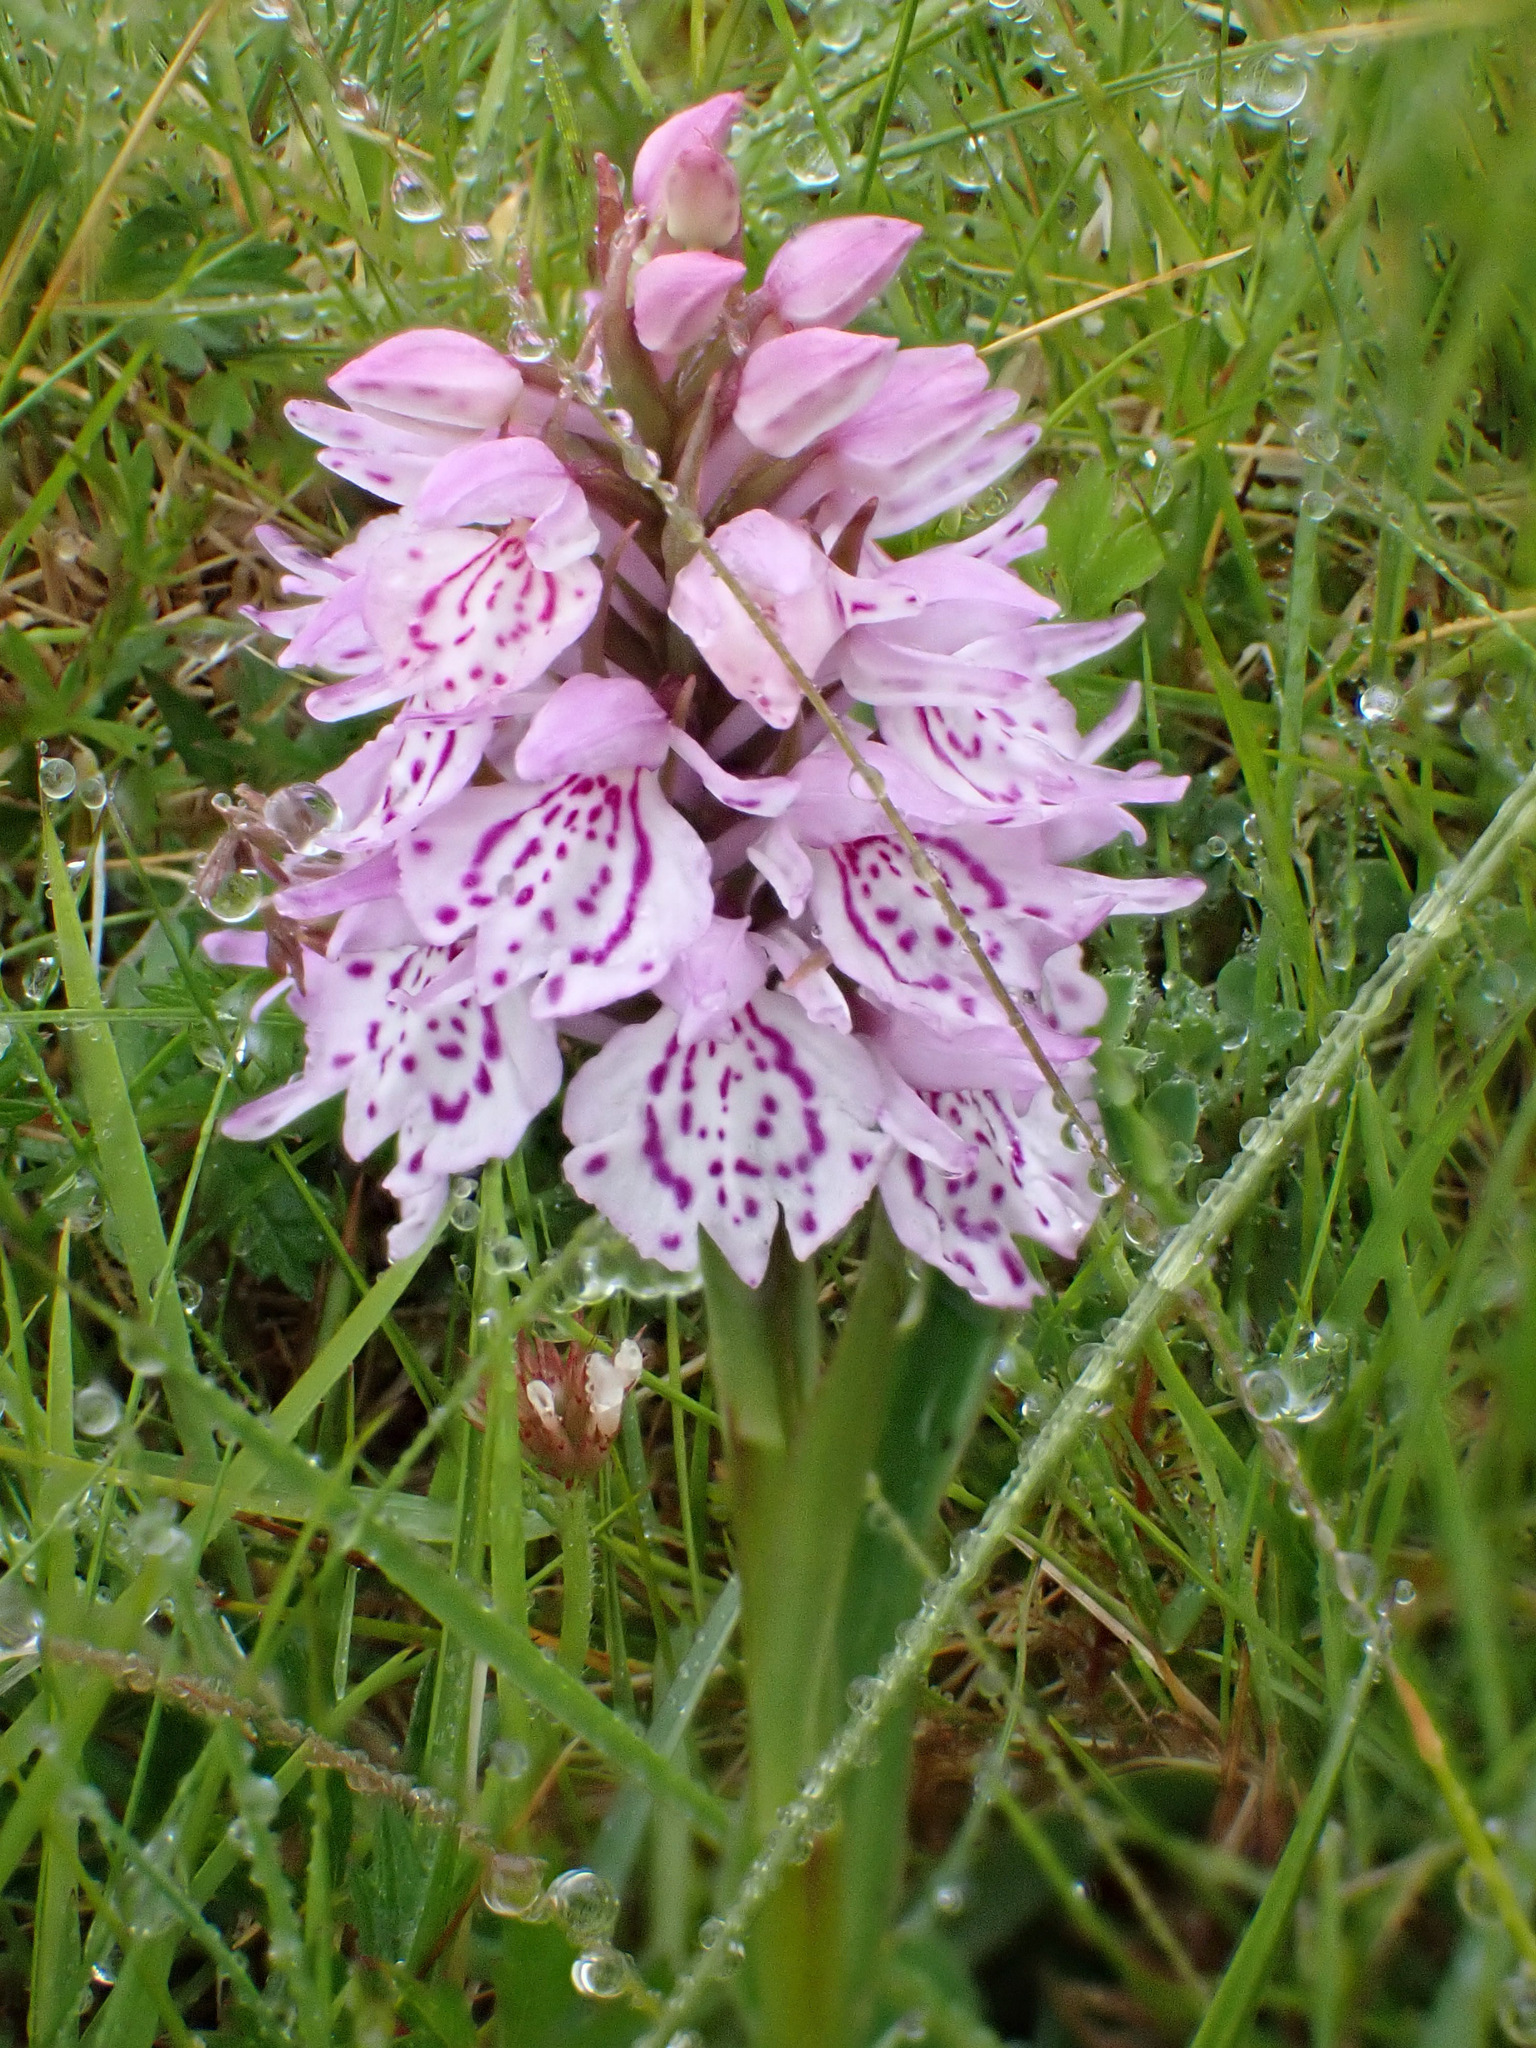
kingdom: Plantae
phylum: Tracheophyta
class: Liliopsida
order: Asparagales
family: Orchidaceae
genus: Dactylorhiza
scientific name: Dactylorhiza maculata
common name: Heath spotted-orchid
